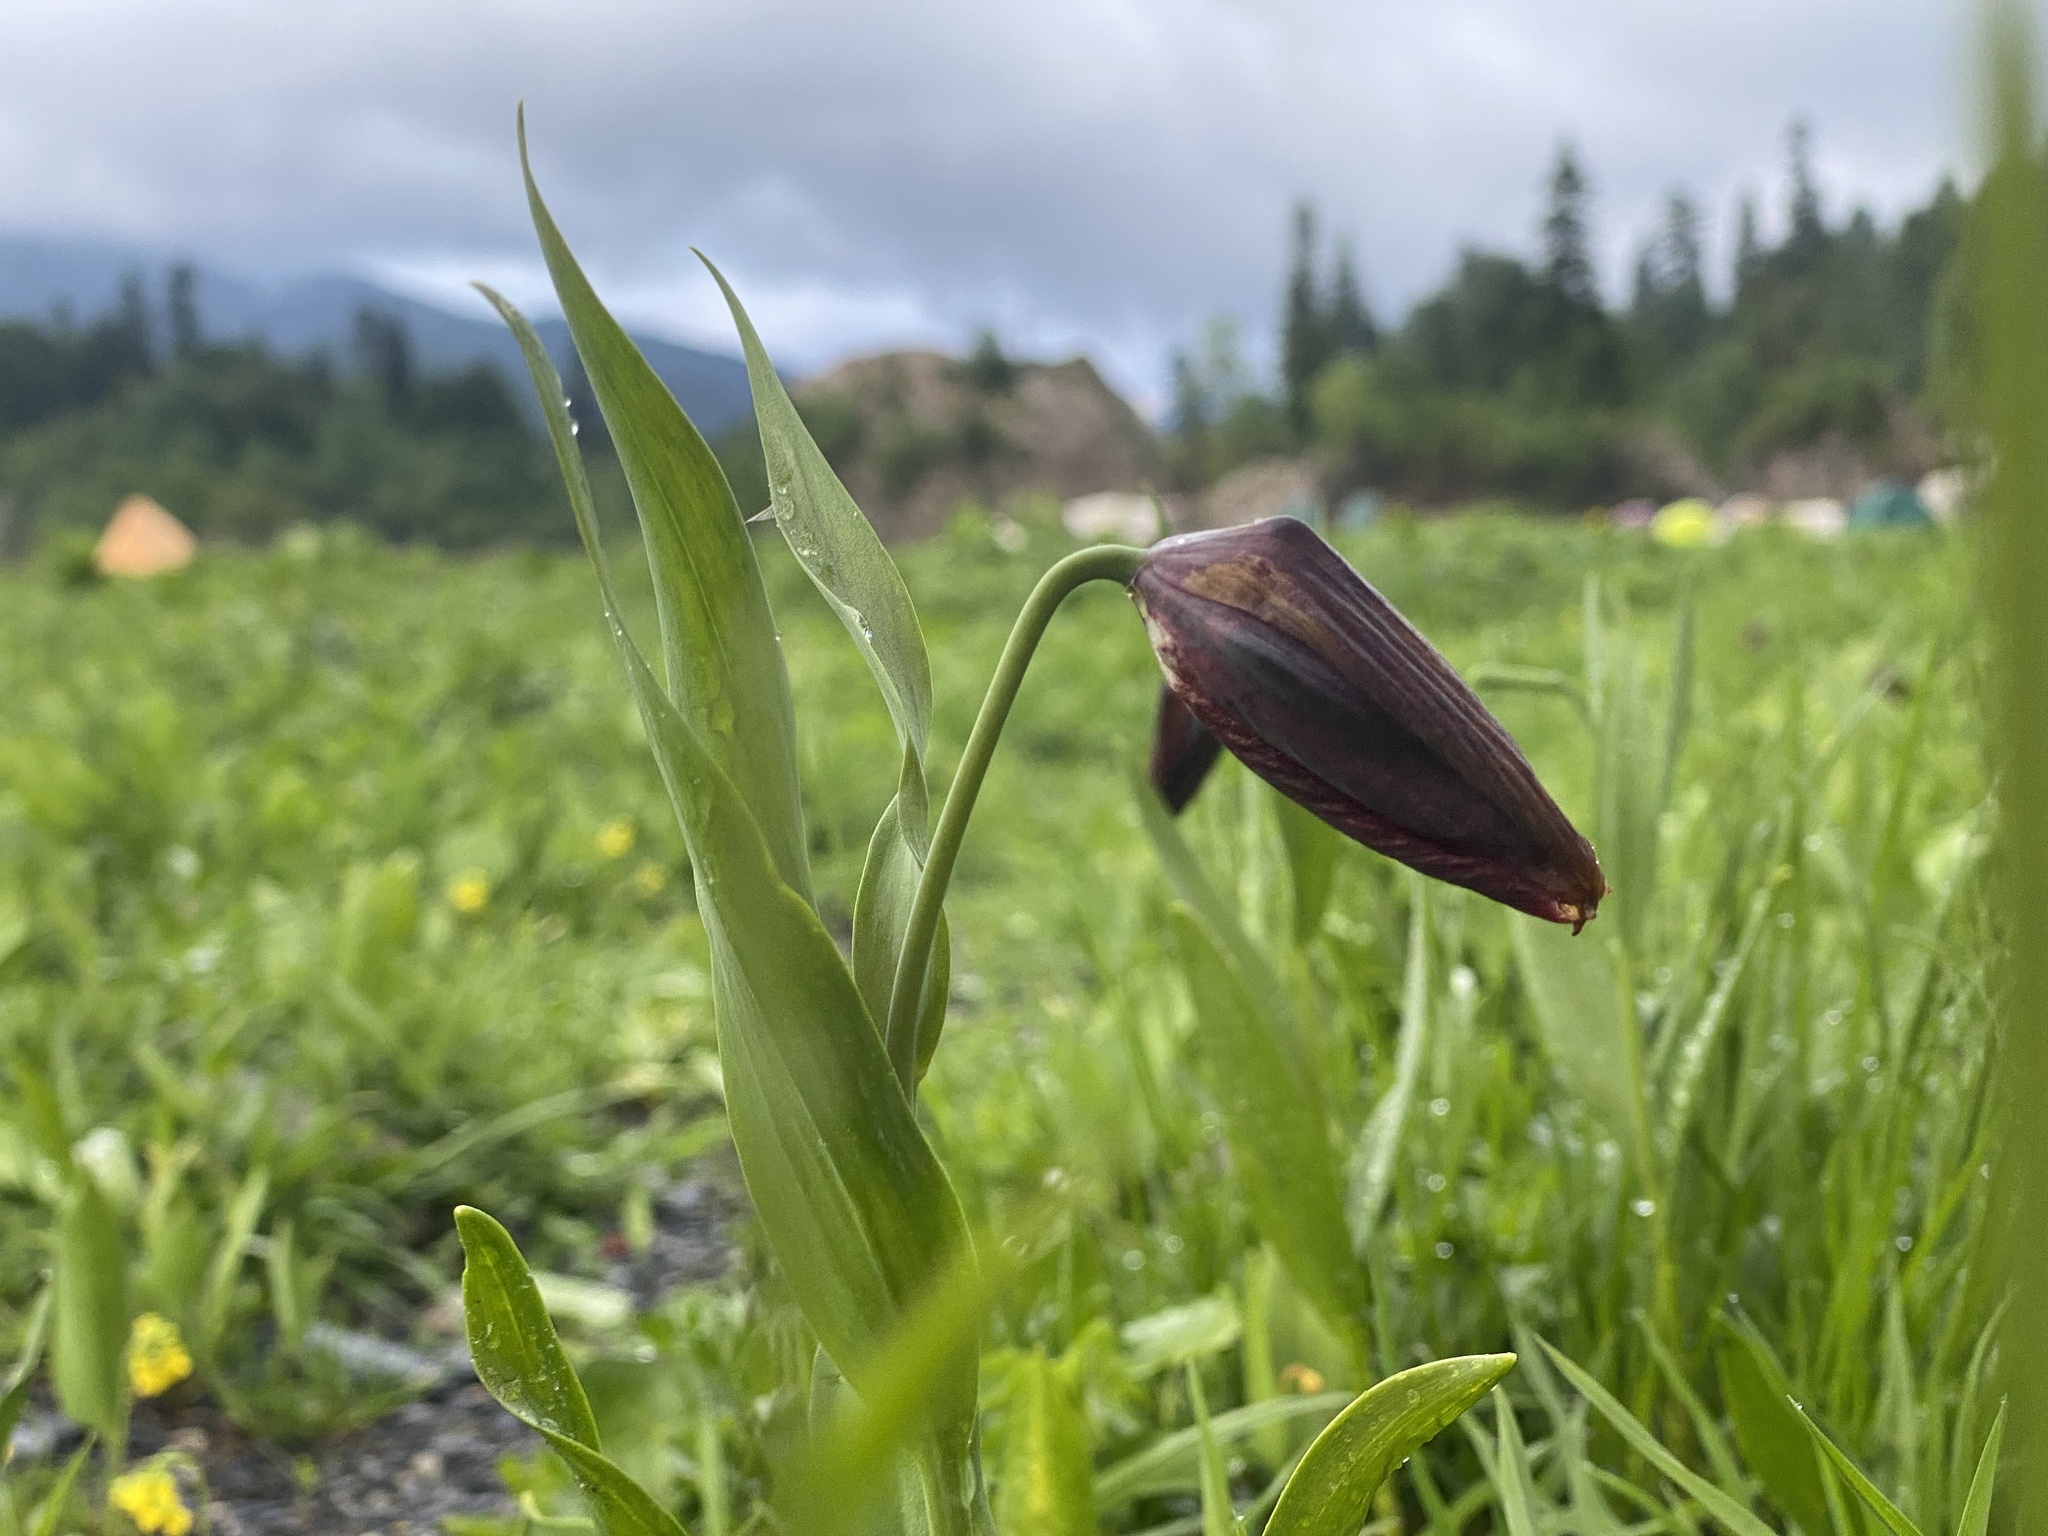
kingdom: Plantae
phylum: Tracheophyta
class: Liliopsida
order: Liliales
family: Liliaceae
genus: Fritillaria
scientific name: Fritillaria latifolia
